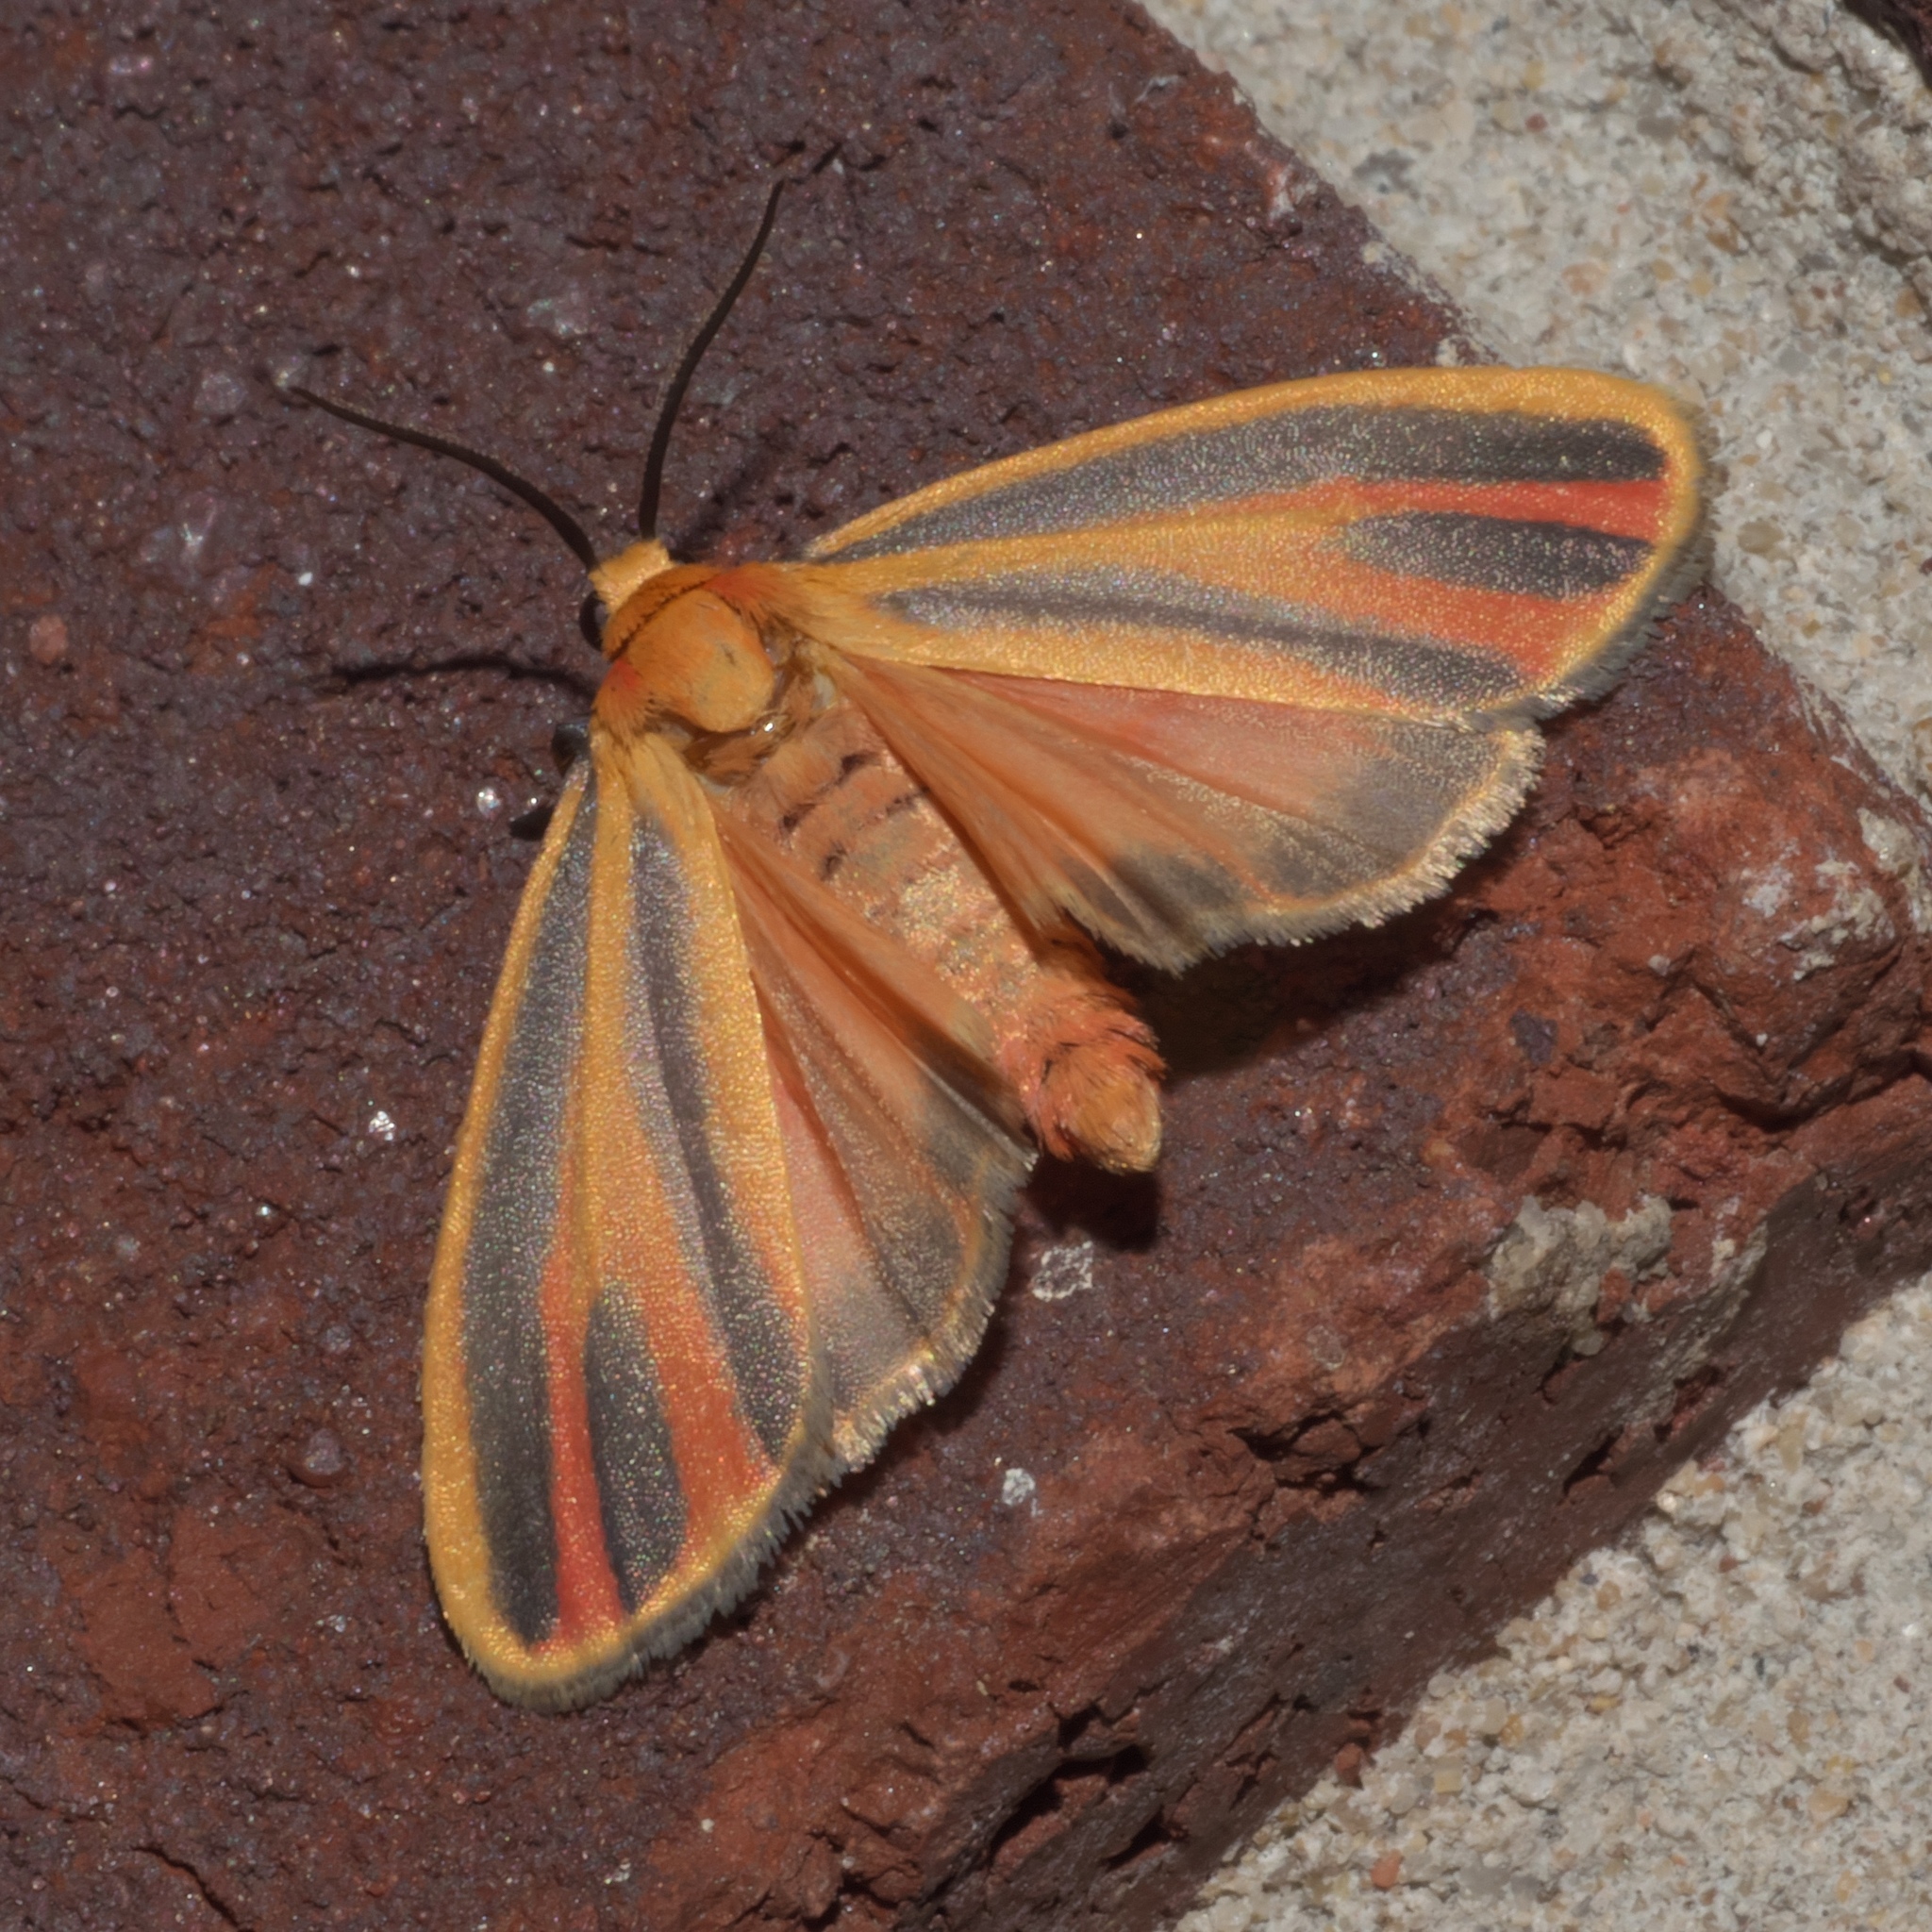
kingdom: Animalia
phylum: Arthropoda
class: Insecta
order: Lepidoptera
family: Erebidae
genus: Hypoprepia
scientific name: Hypoprepia fucosa
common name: Painted lichen moth
